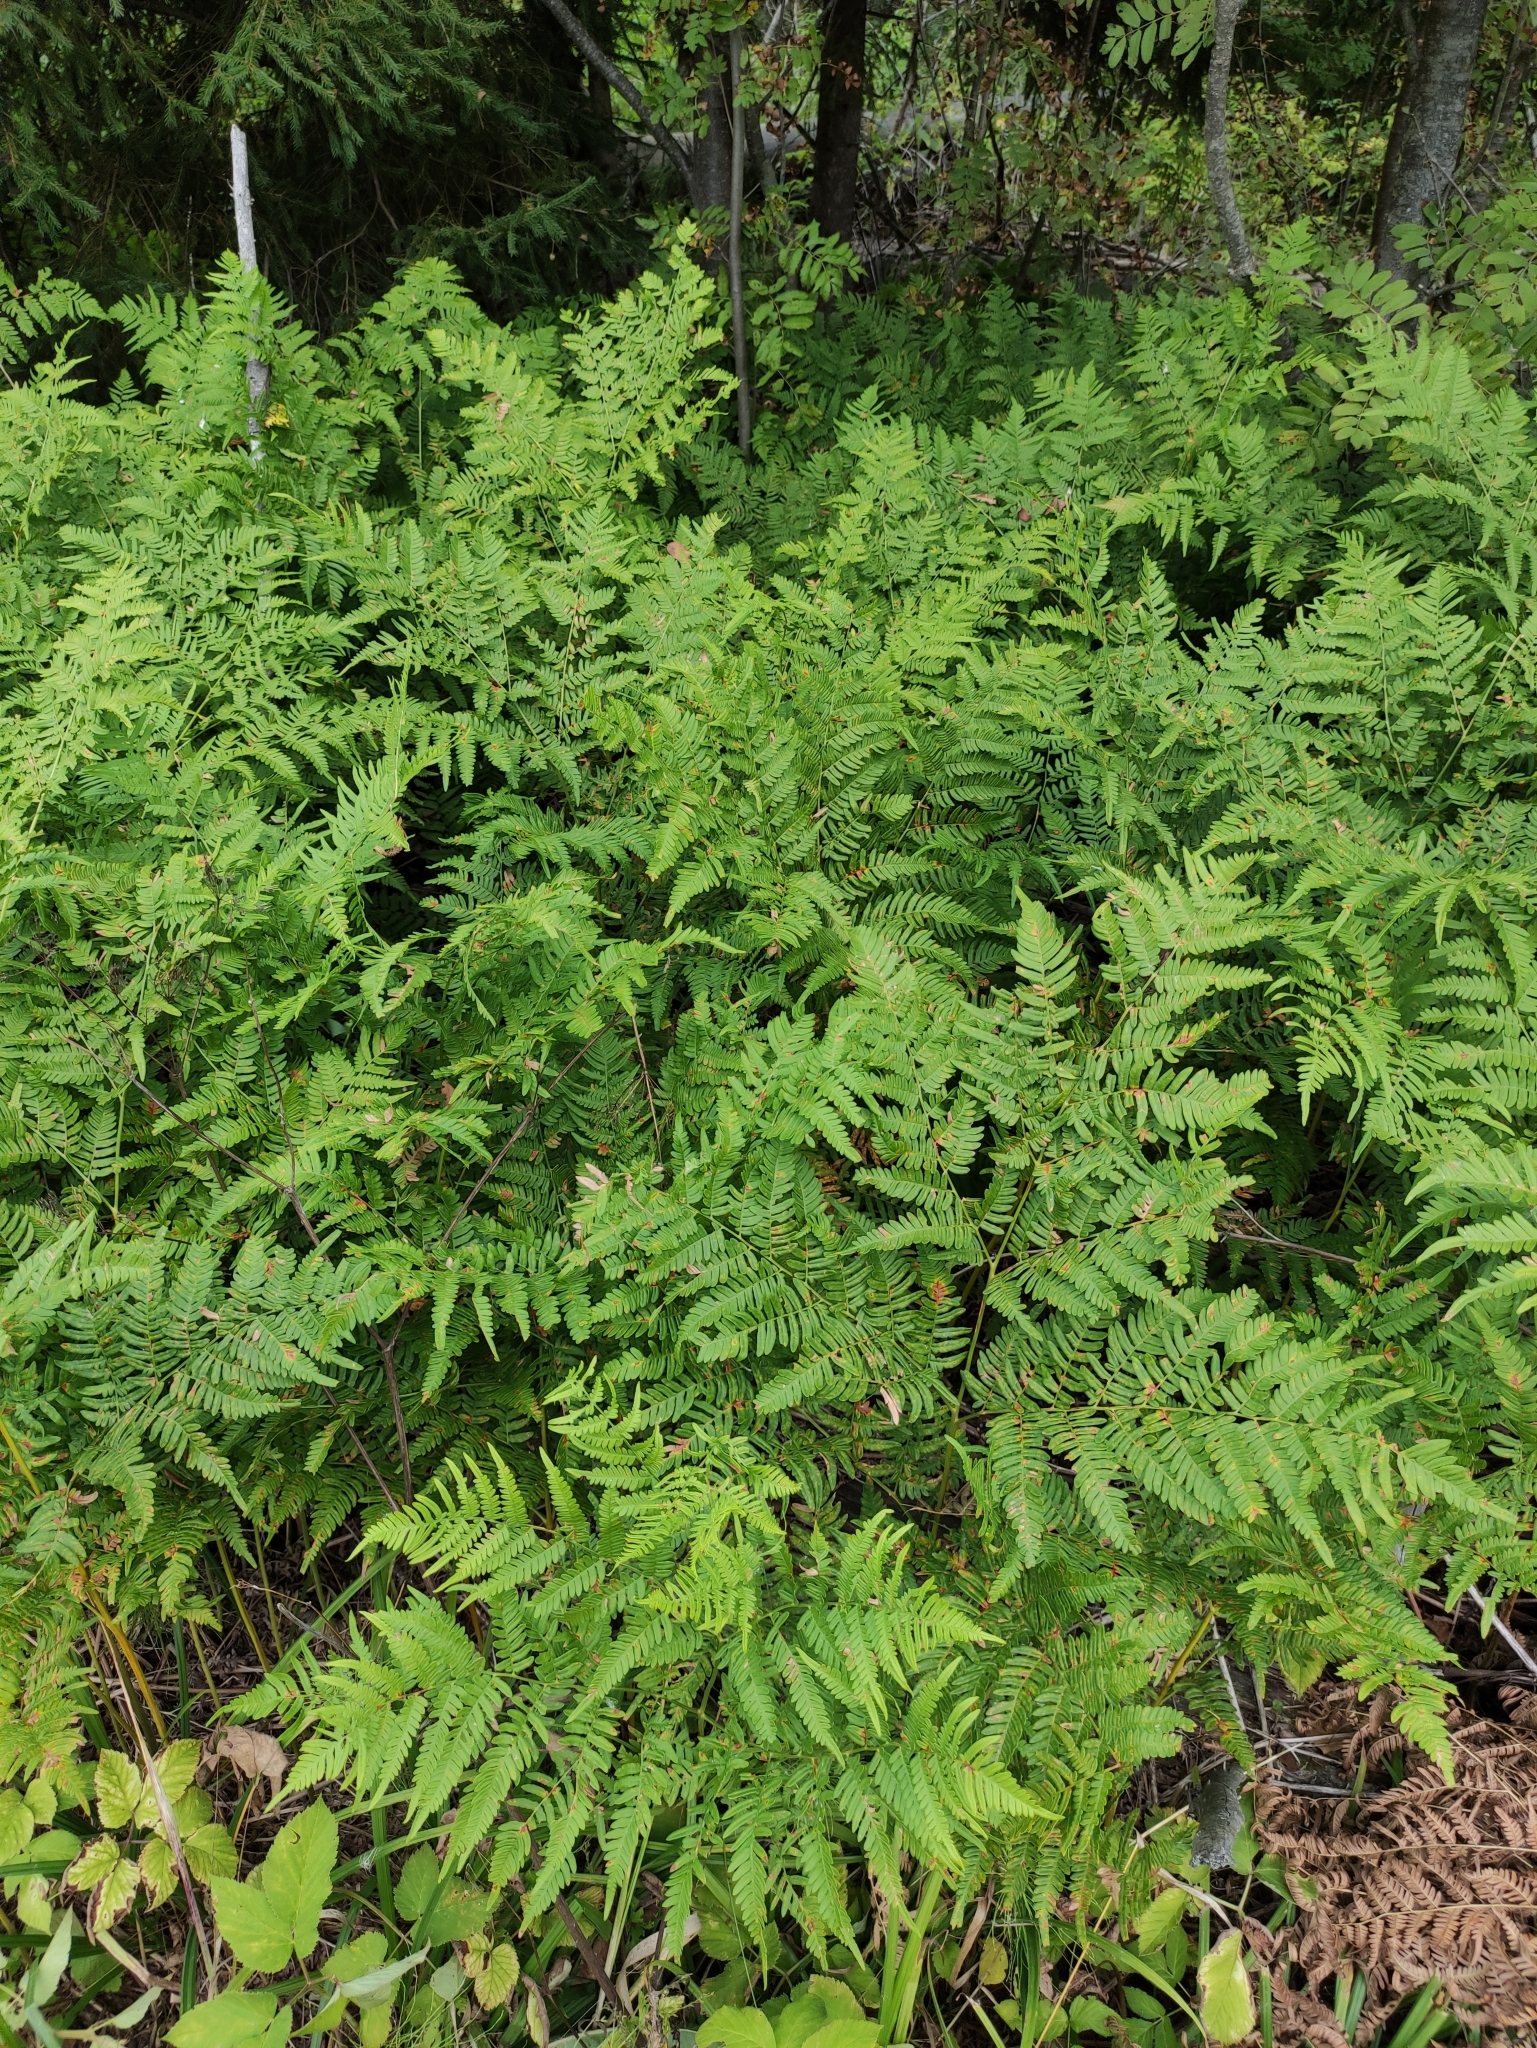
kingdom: Plantae
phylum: Tracheophyta
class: Polypodiopsida
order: Polypodiales
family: Dennstaedtiaceae
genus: Pteridium
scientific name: Pteridium aquilinum
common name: Bracken
